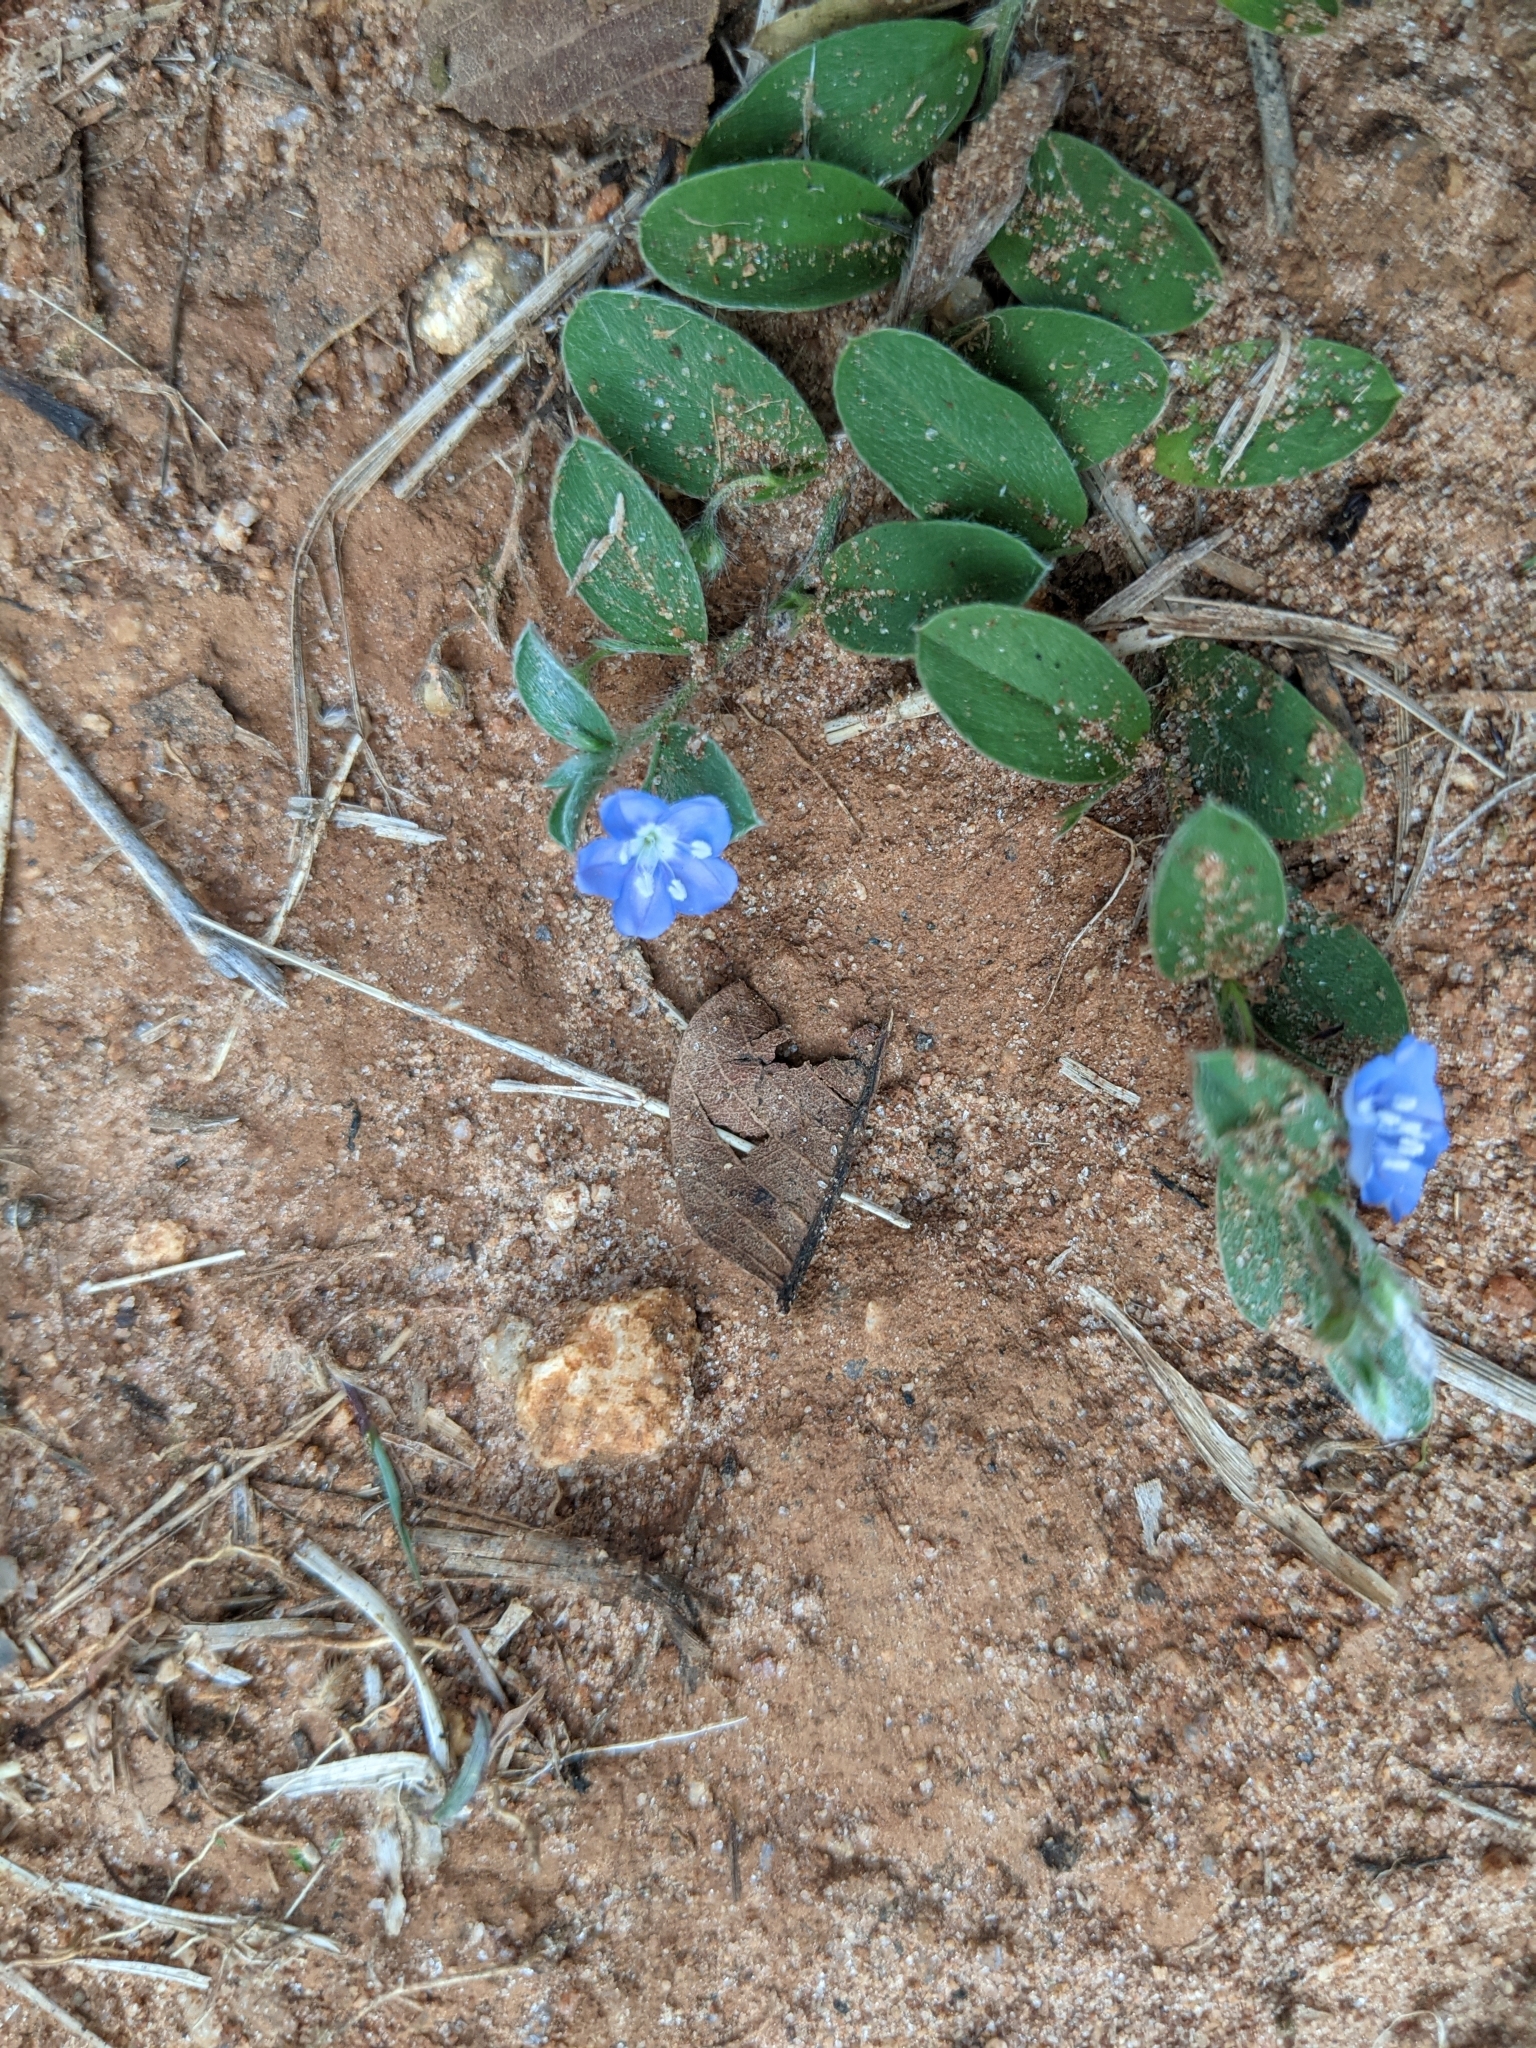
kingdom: Plantae
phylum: Tracheophyta
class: Magnoliopsida
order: Solanales
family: Convolvulaceae
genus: Evolvulus
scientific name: Evolvulus alsinoides
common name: Slender dwarf morning-glory
